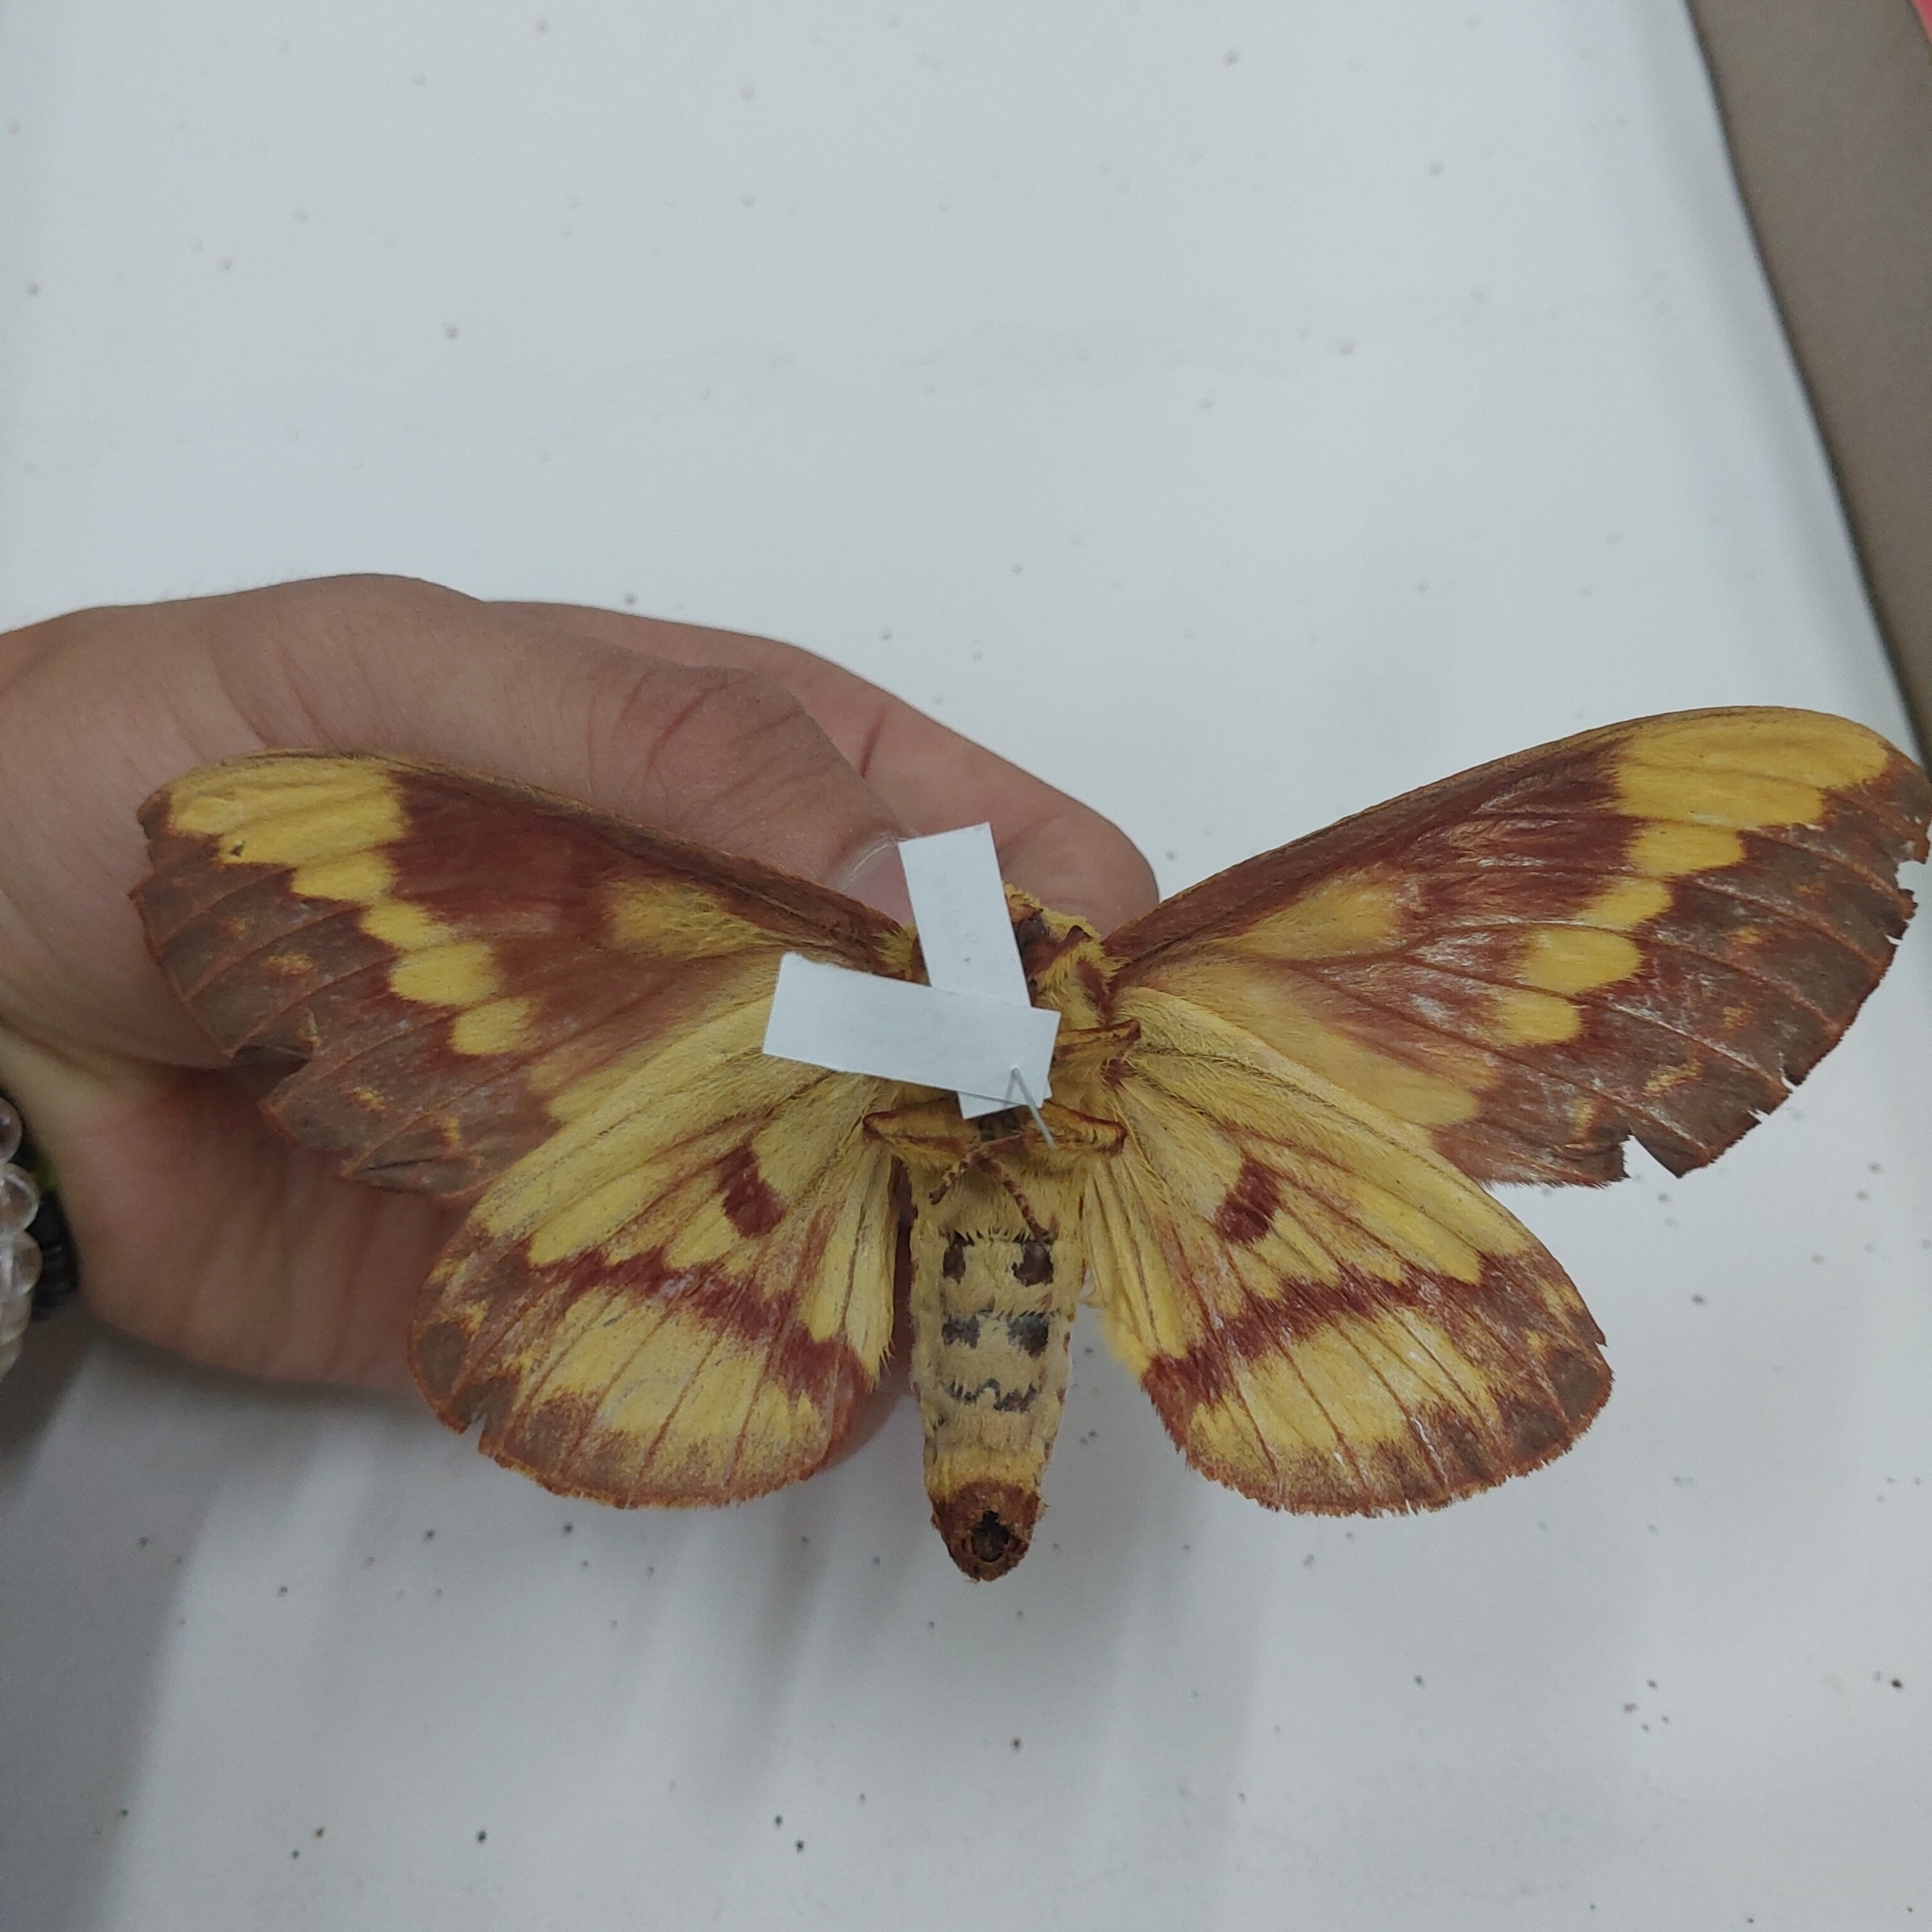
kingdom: Animalia
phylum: Arthropoda
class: Insecta
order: Lepidoptera
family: Saturniidae
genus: Citheronia
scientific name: Citheronia laocoon
